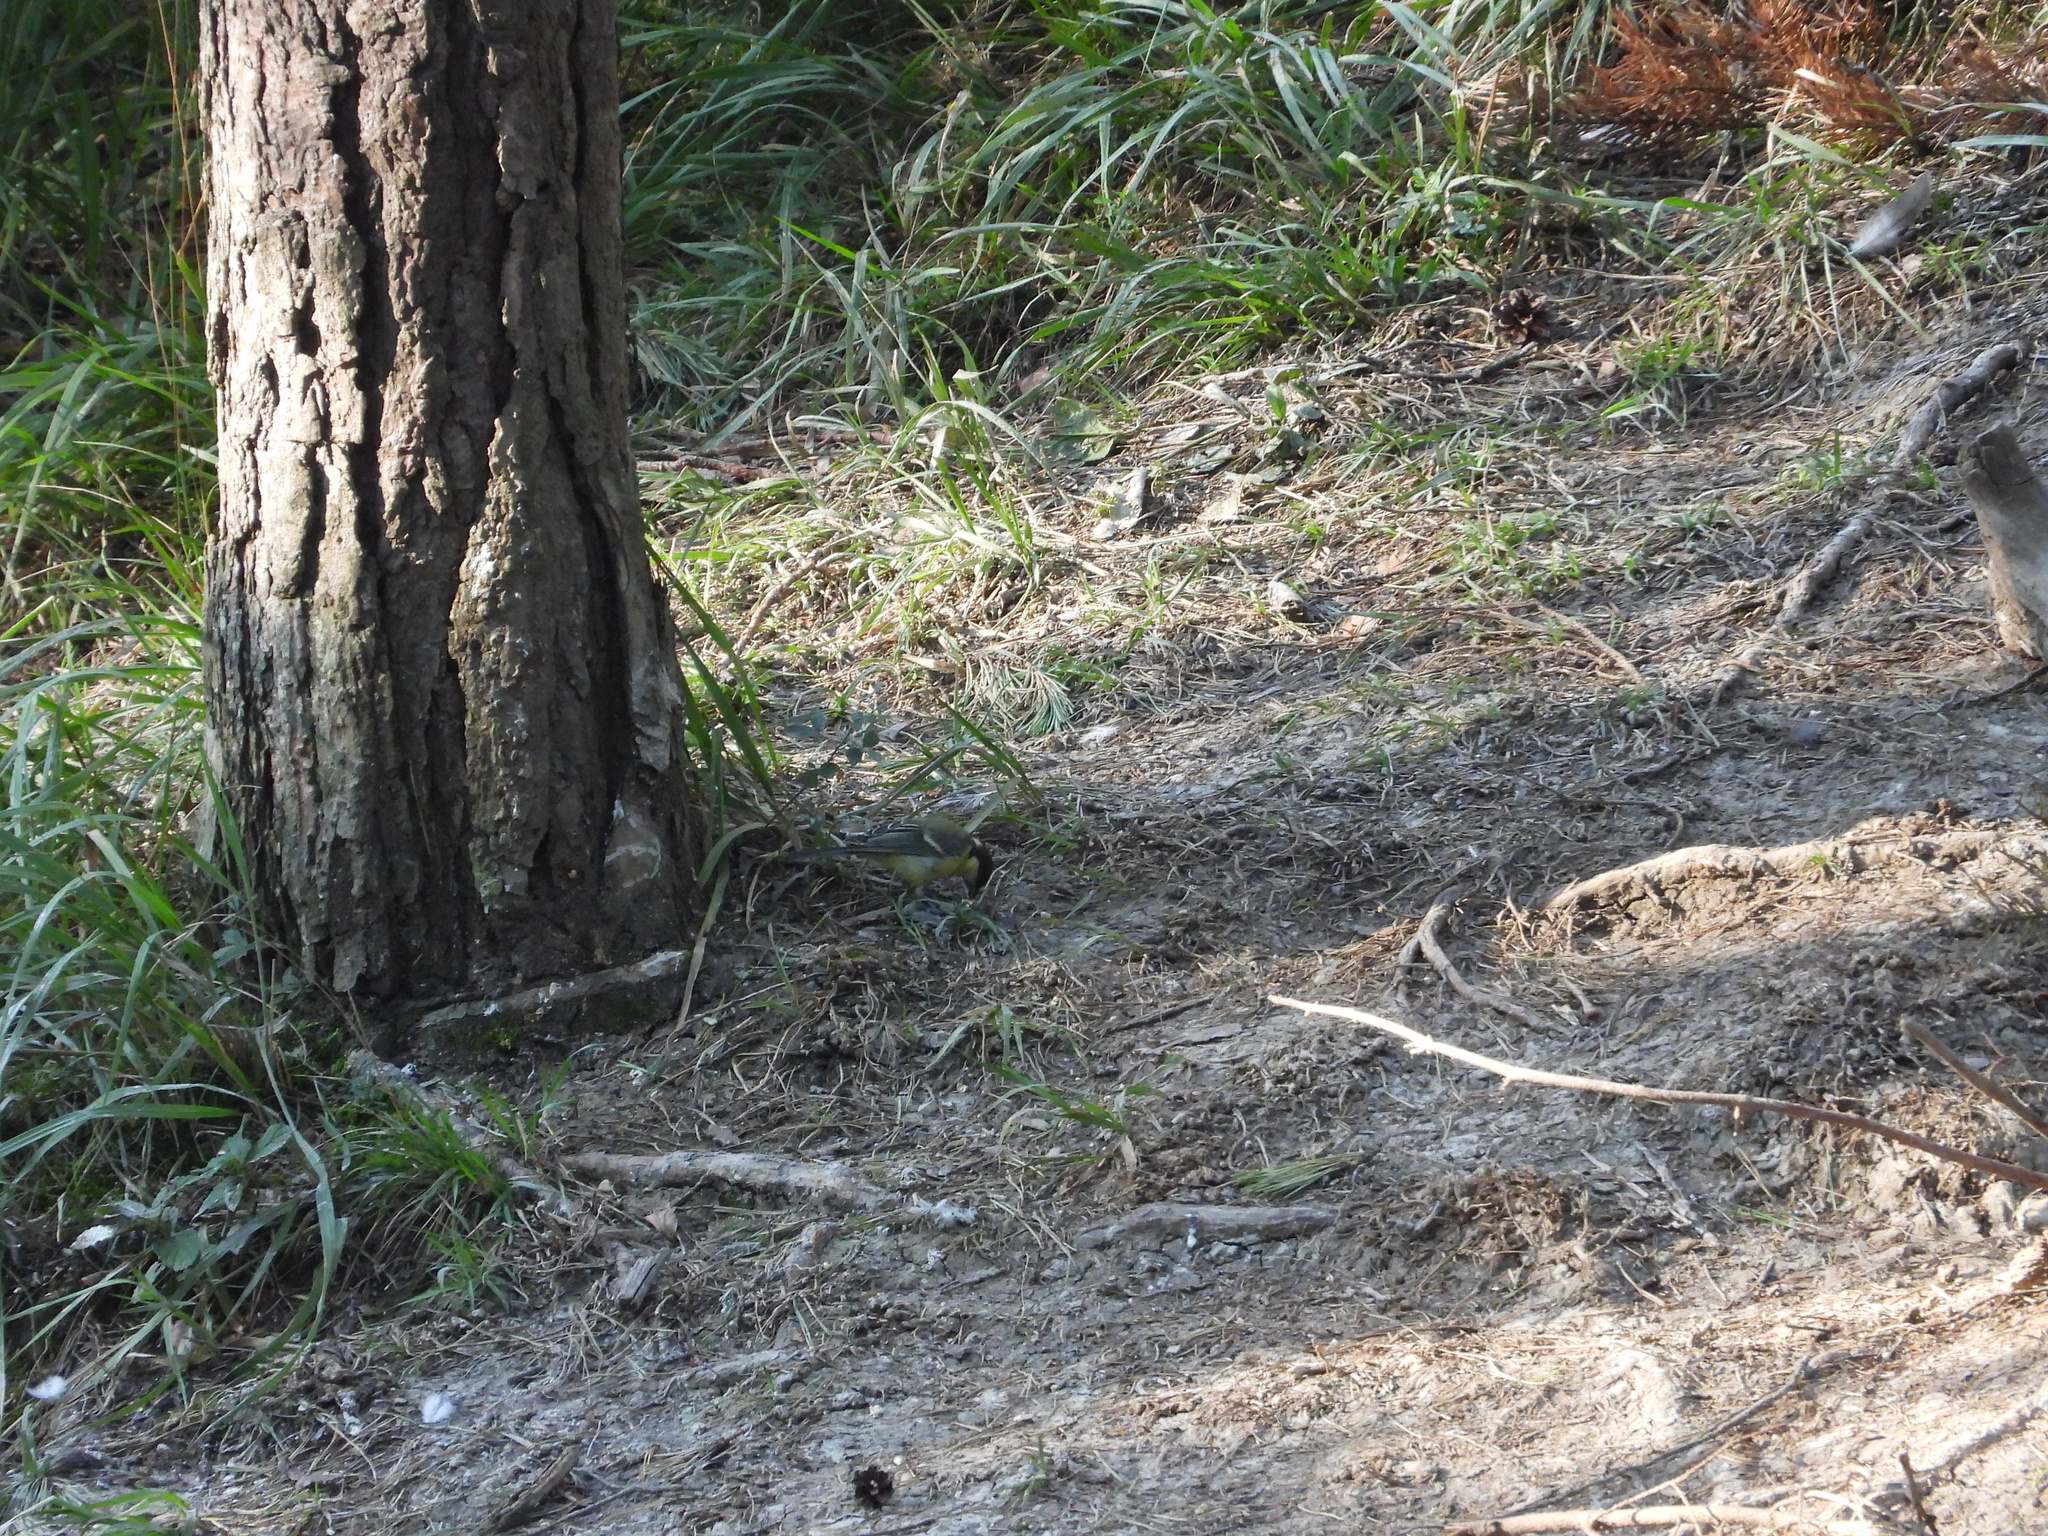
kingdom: Animalia
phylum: Chordata
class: Aves
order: Passeriformes
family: Paridae
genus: Parus
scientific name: Parus major
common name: Great tit
